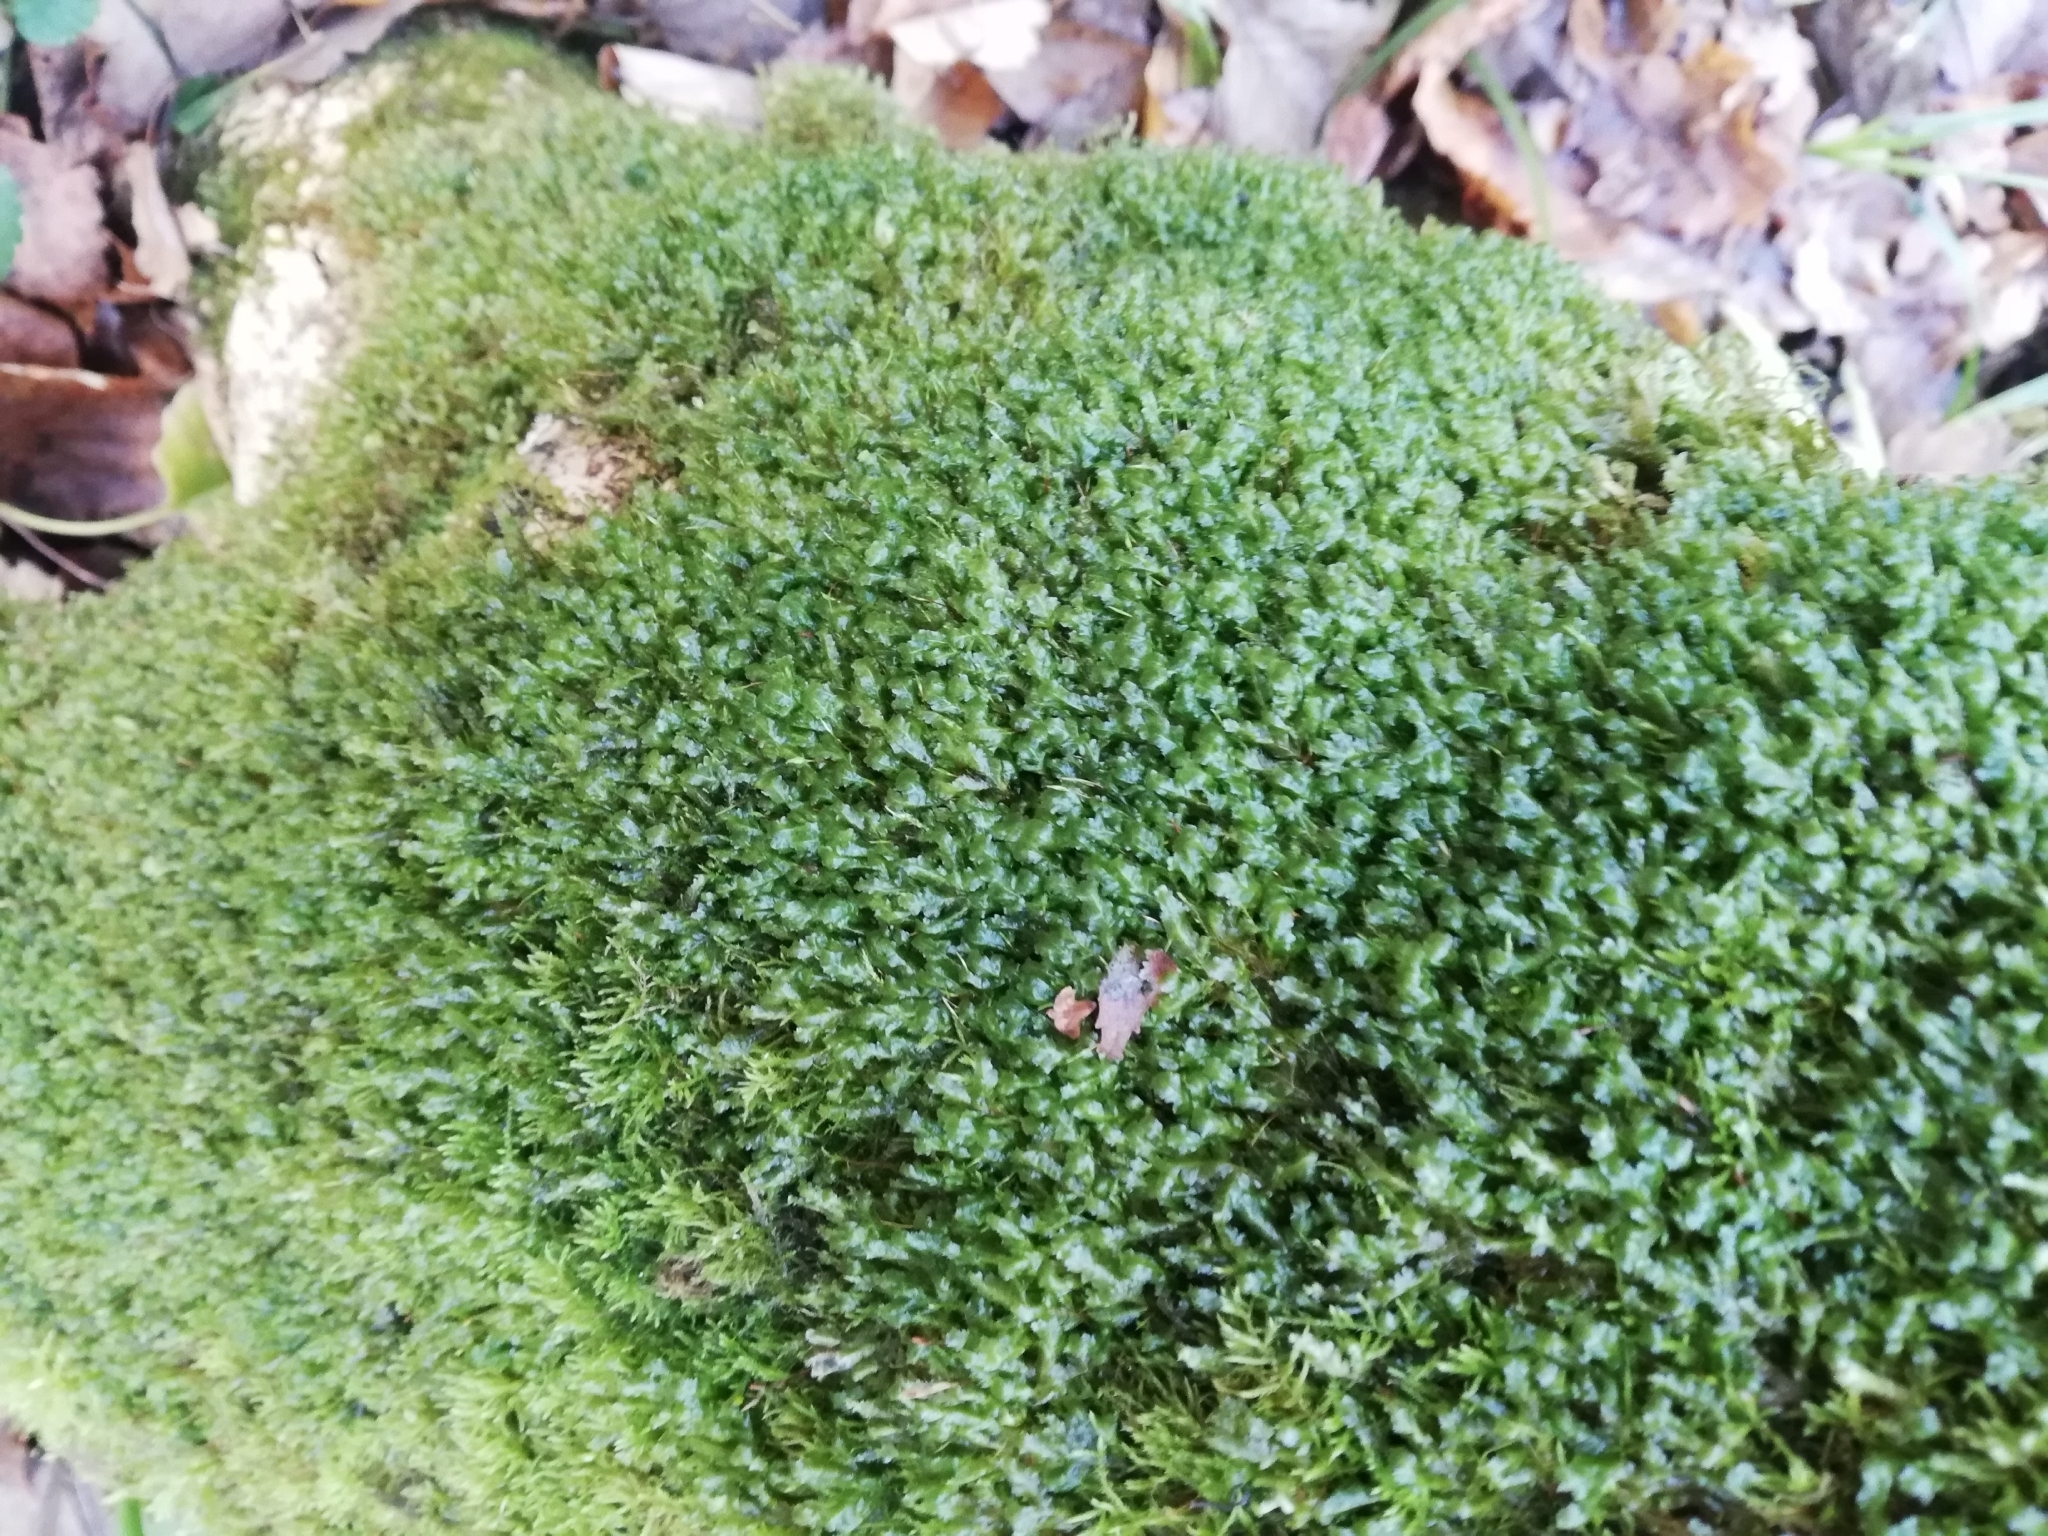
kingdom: Plantae
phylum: Bryophyta
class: Bryopsida
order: Hypnales
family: Neckeraceae
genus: Homalia
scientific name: Homalia trichomanoides
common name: Lime homalia moss
